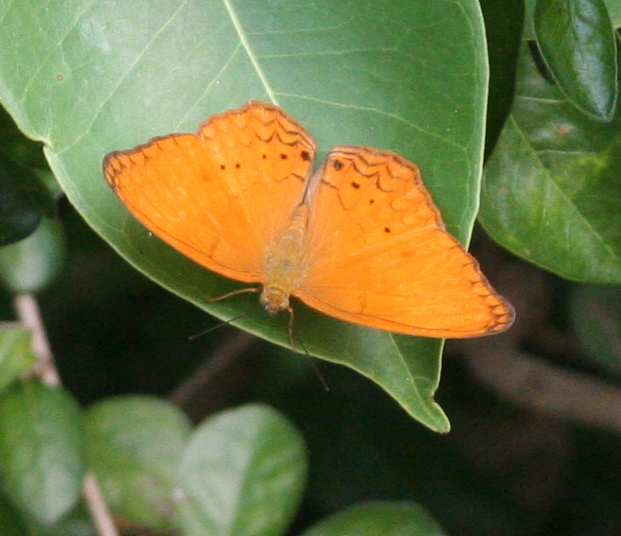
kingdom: Animalia
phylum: Arthropoda
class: Insecta
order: Lepidoptera
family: Nymphalidae
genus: Cirrochroa
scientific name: Cirrochroa tyche
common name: Common yeoman
